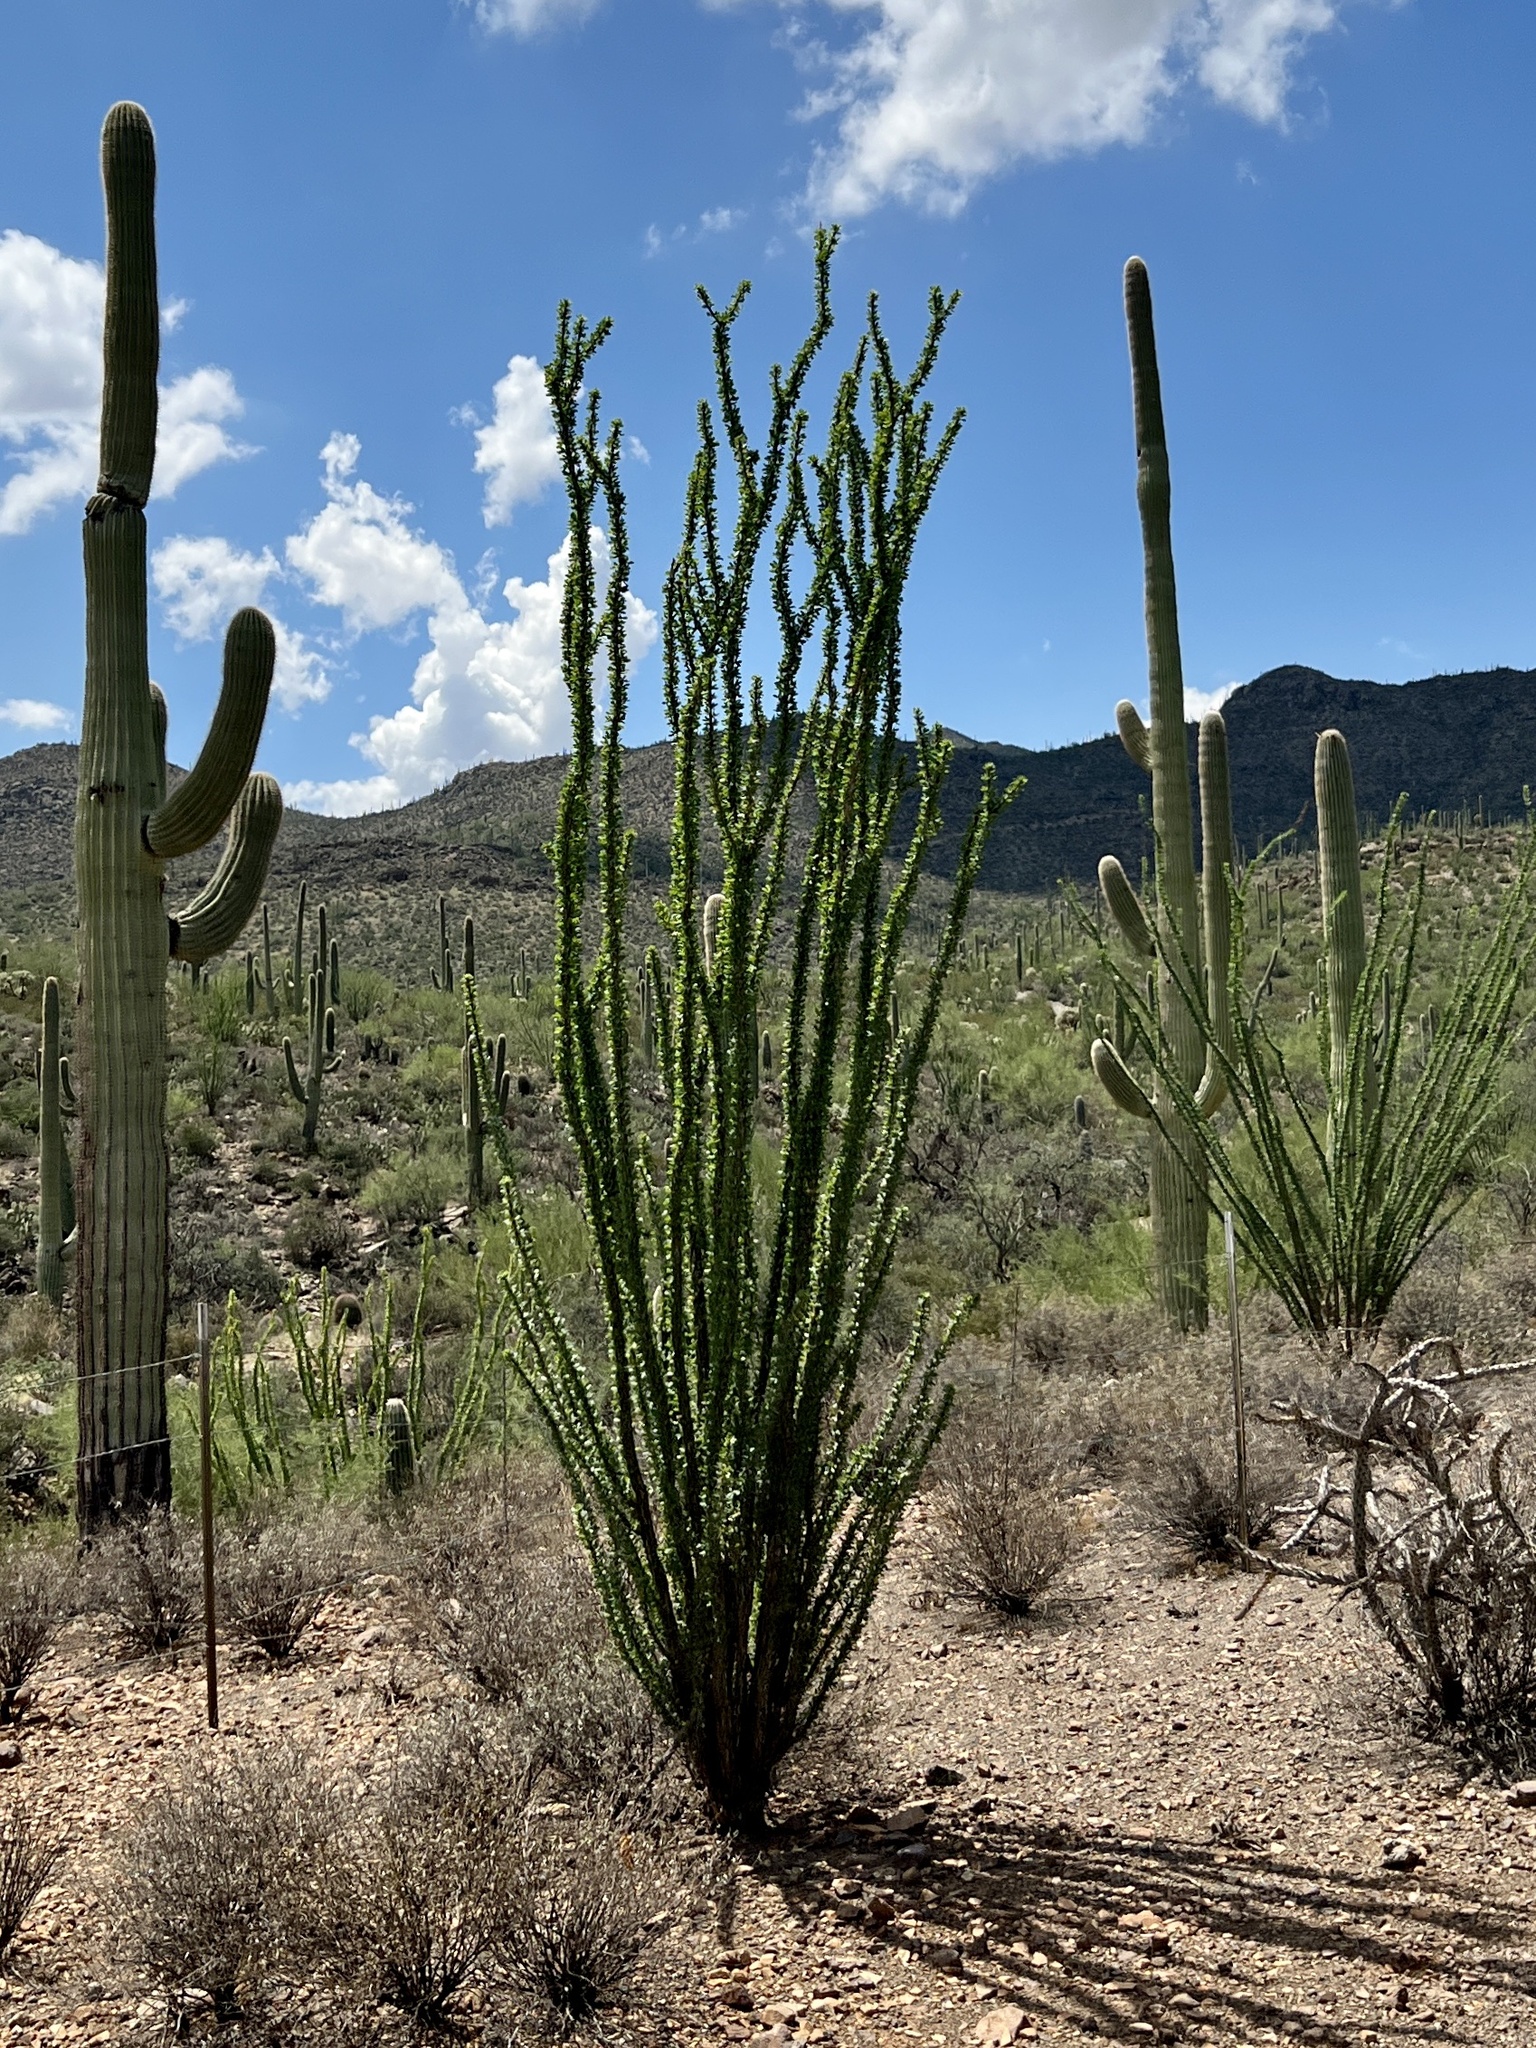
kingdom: Plantae
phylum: Tracheophyta
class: Magnoliopsida
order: Ericales
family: Fouquieriaceae
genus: Fouquieria
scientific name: Fouquieria splendens
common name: Vine-cactus
